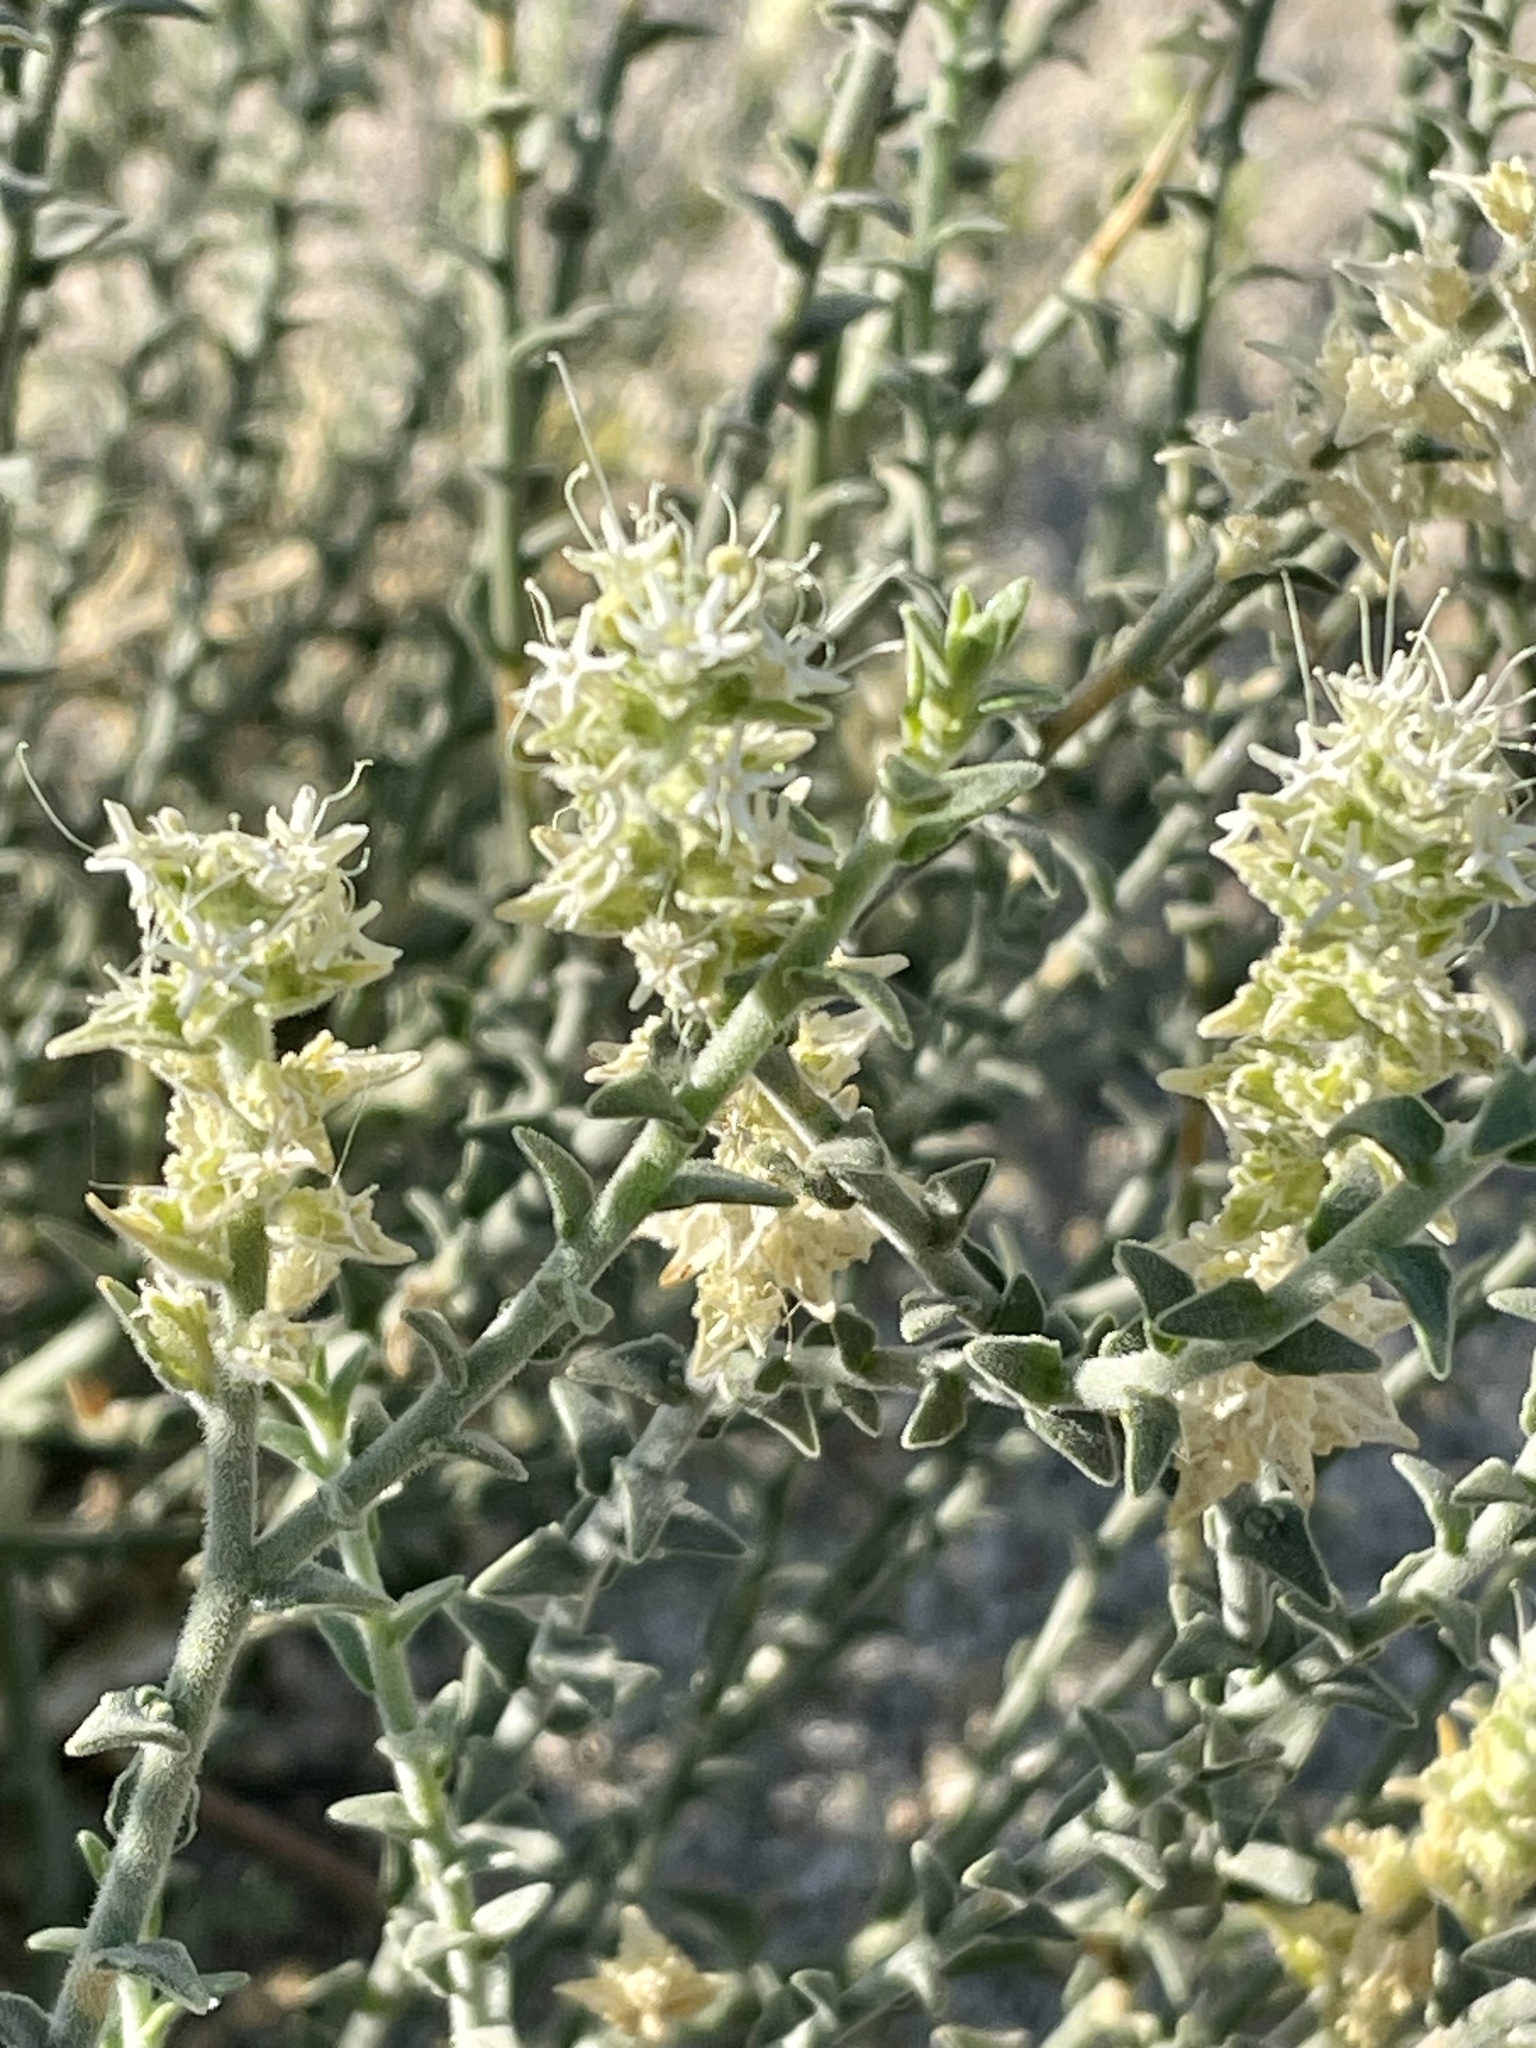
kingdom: Plantae
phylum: Tracheophyta
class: Magnoliopsida
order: Cornales
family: Loasaceae
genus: Petalonyx
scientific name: Petalonyx thurberi
